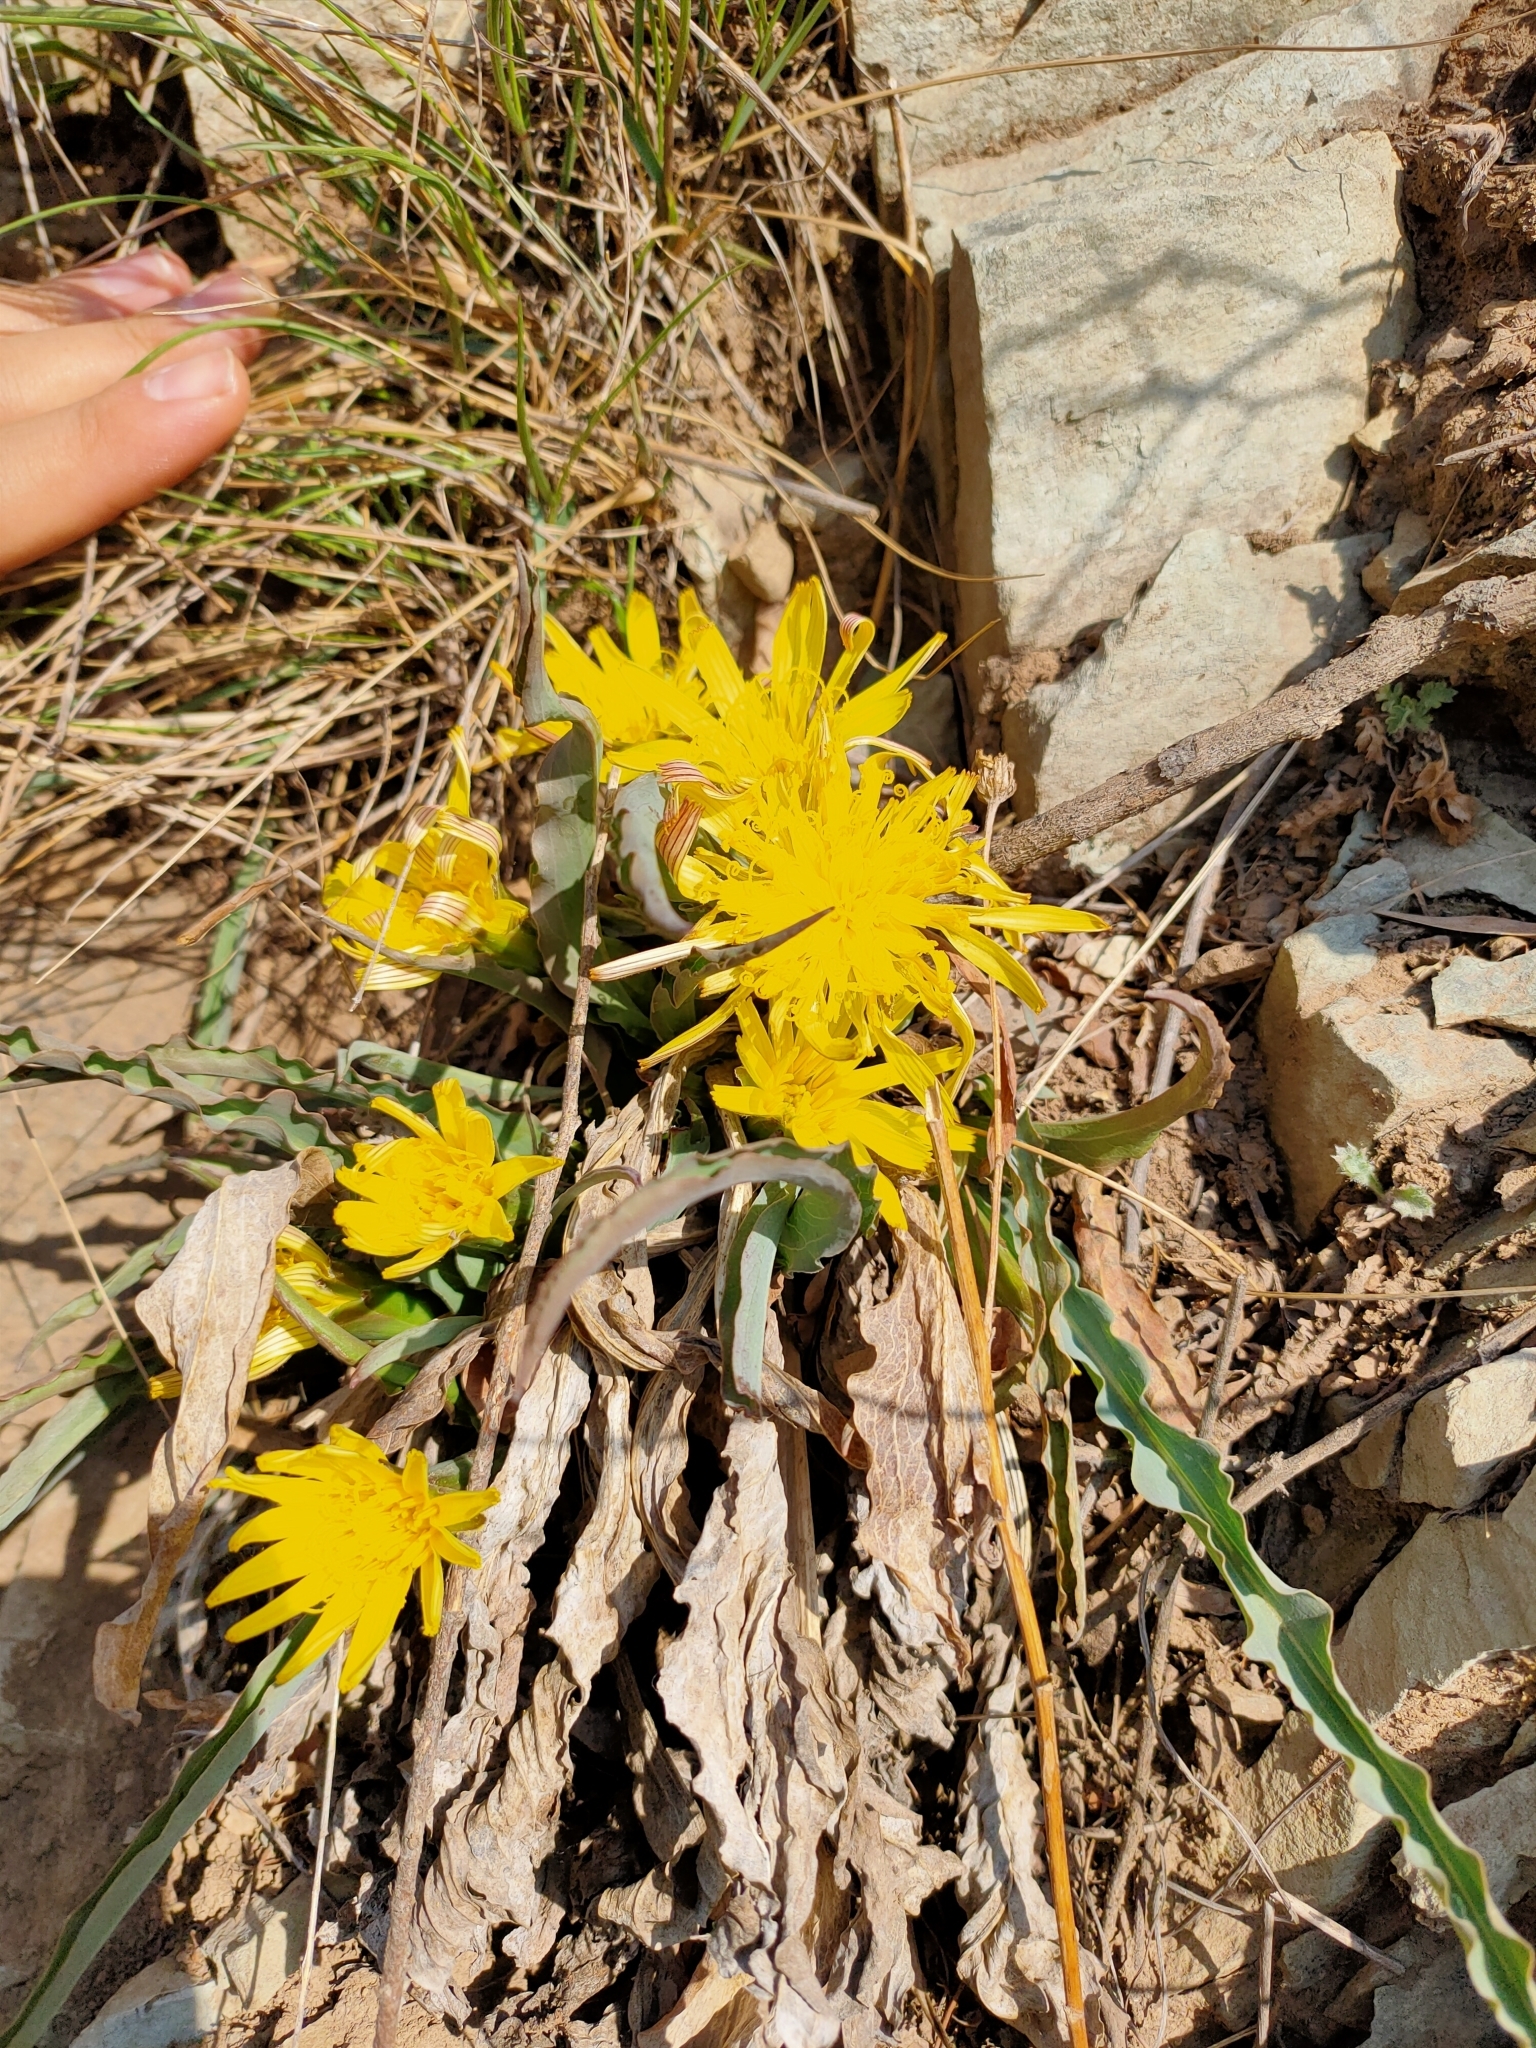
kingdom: Plantae
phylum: Tracheophyta
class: Magnoliopsida
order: Asterales
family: Asteraceae
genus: Scorzonera
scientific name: Scorzonera sinensis
